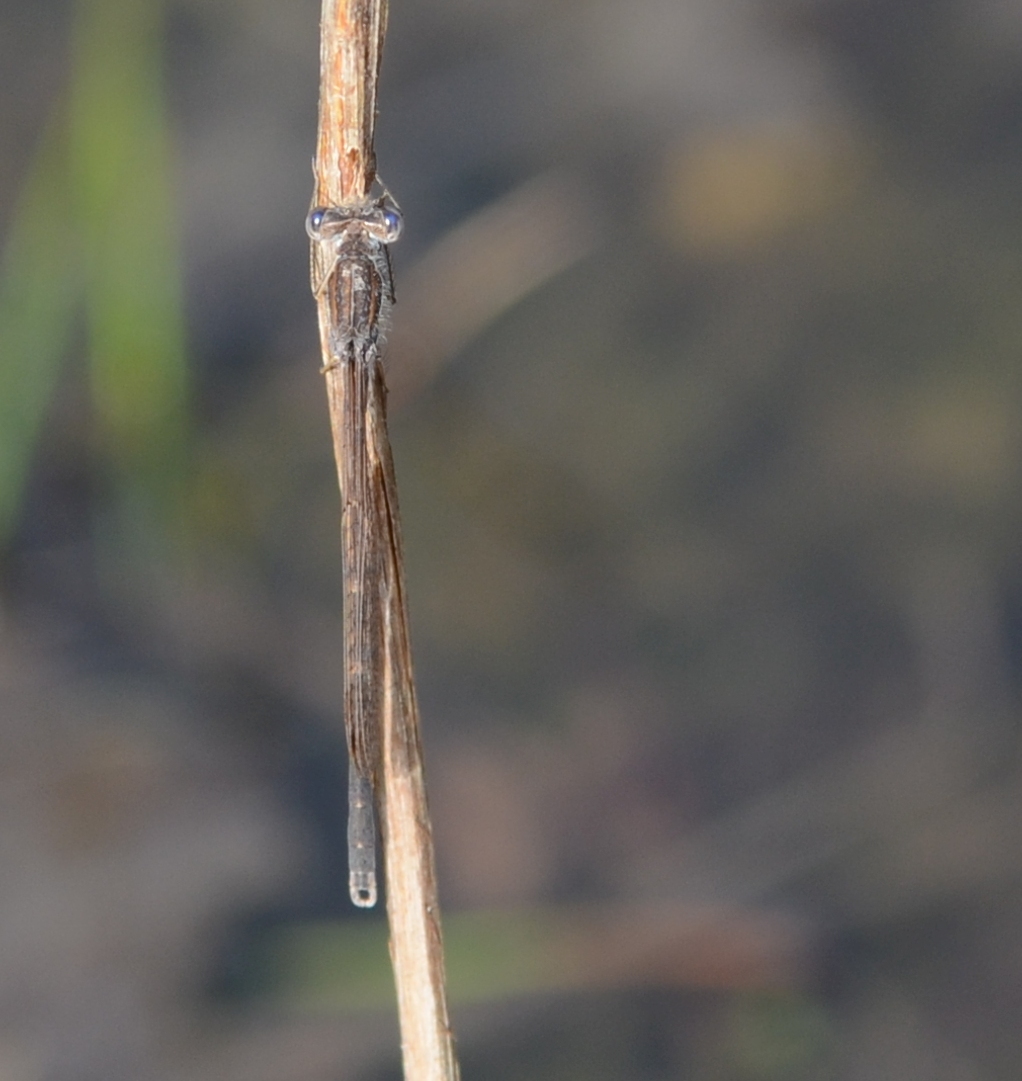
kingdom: Animalia
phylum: Arthropoda
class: Insecta
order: Odonata
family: Lestidae
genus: Sympecma
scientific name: Sympecma fusca
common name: Common winter damsel
